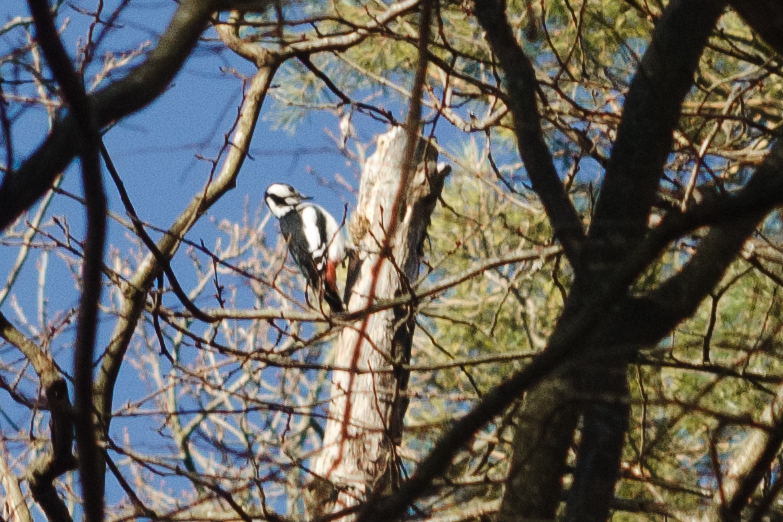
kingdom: Animalia
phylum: Chordata
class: Aves
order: Piciformes
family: Picidae
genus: Dendrocopos
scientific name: Dendrocopos major
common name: Great spotted woodpecker
